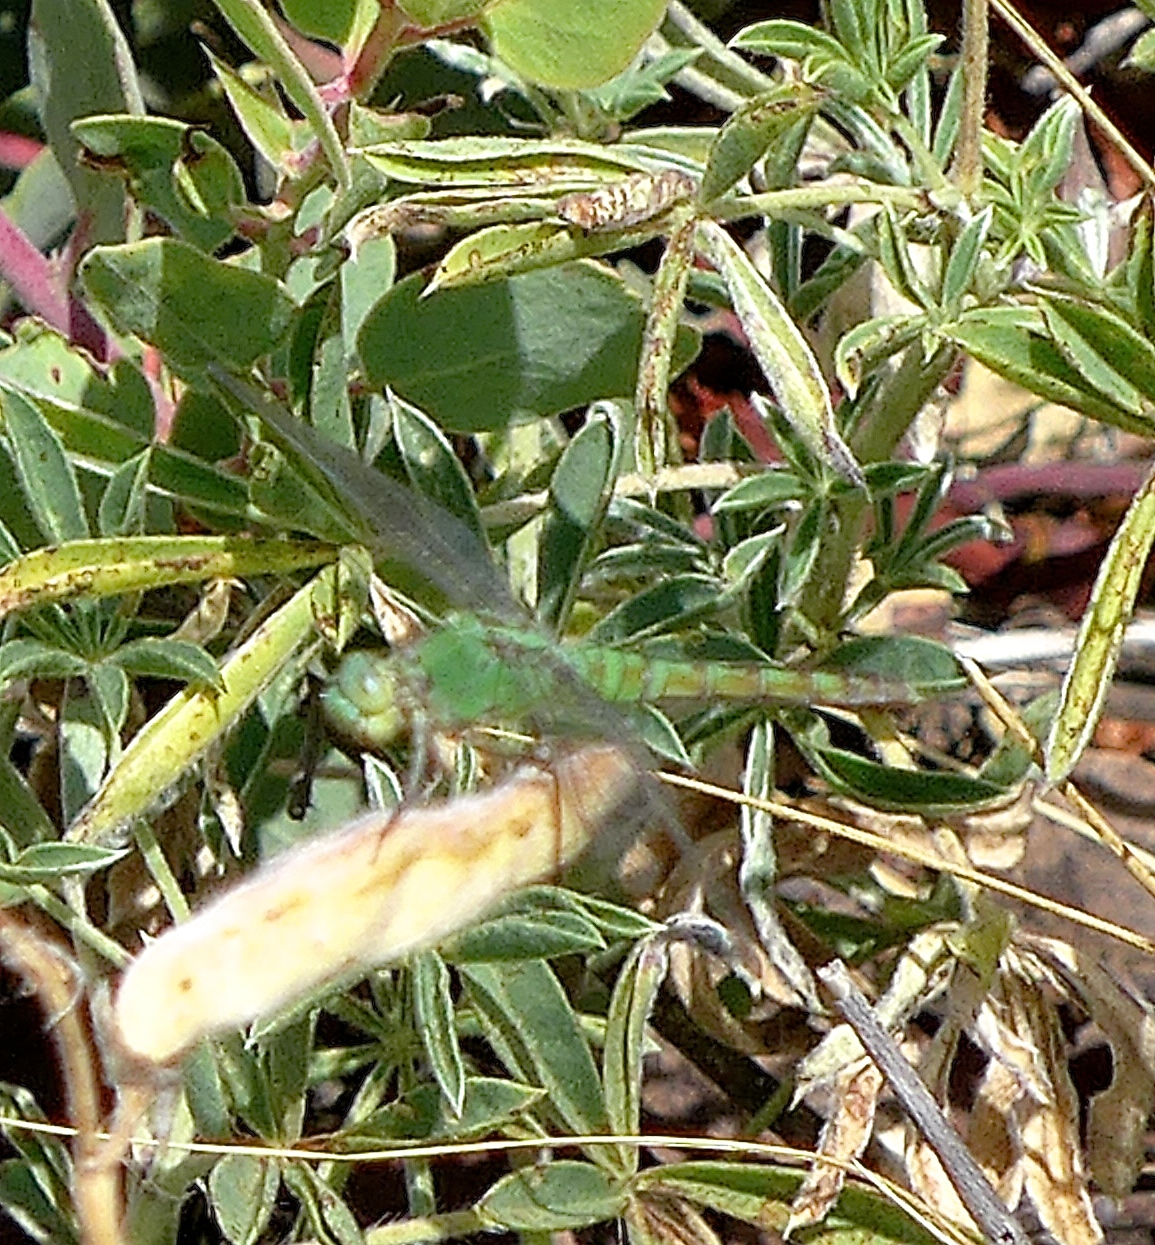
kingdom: Animalia
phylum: Arthropoda
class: Insecta
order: Odonata
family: Libellulidae
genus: Erythemis
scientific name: Erythemis collocata
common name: Western pondhawk
